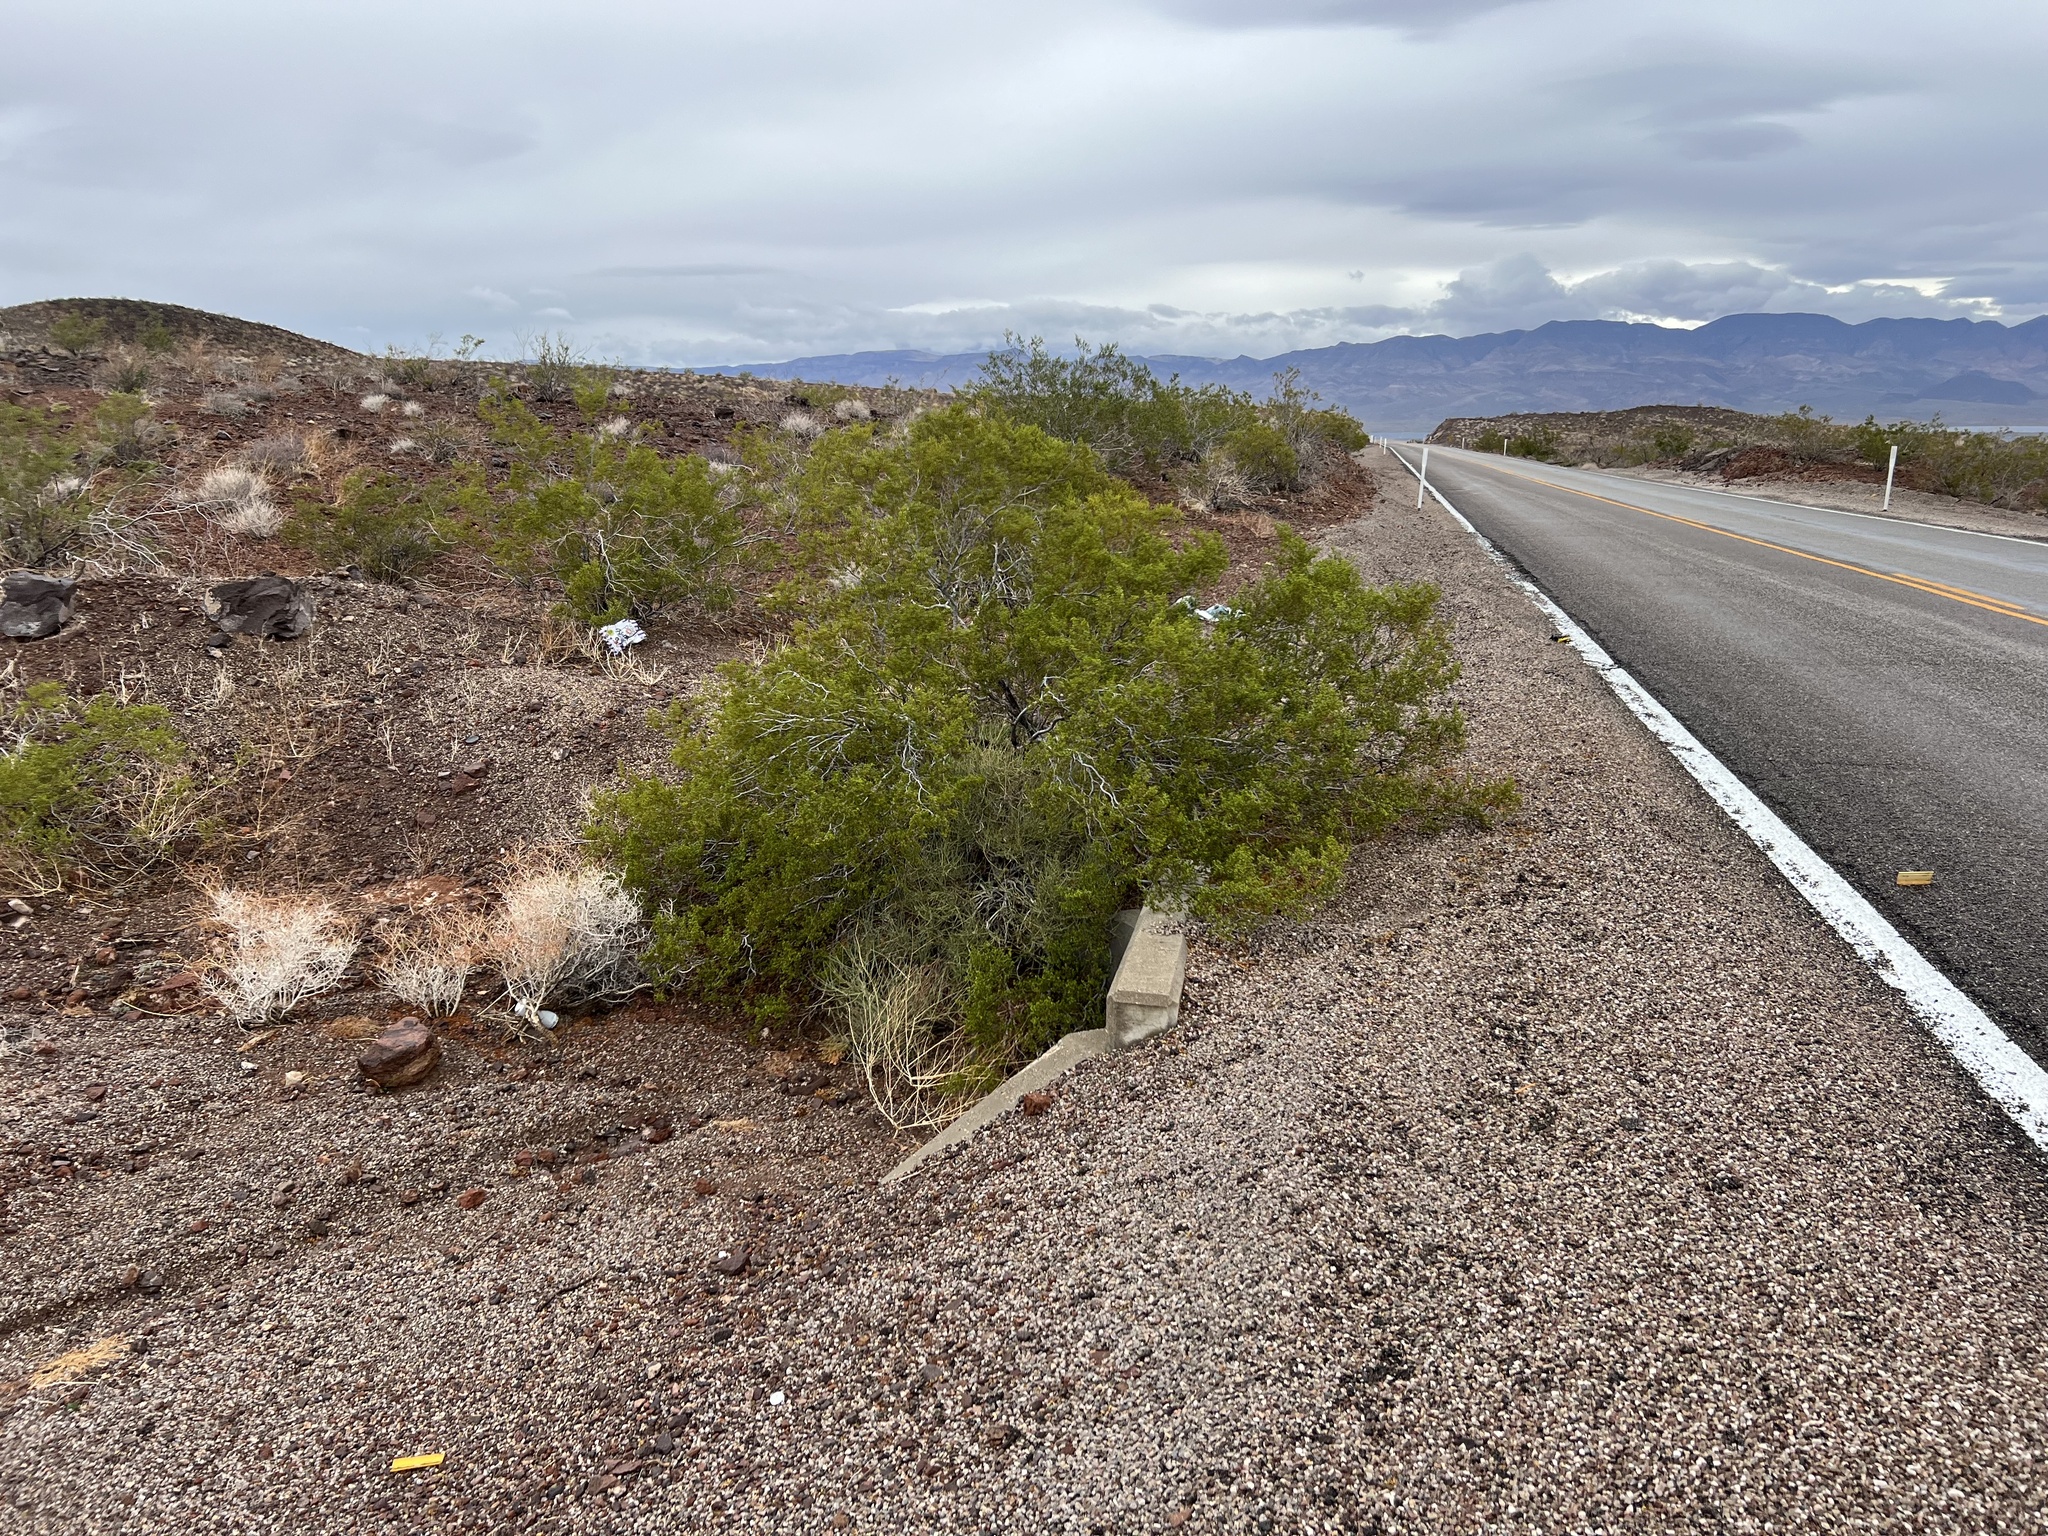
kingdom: Plantae
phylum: Tracheophyta
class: Magnoliopsida
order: Zygophyllales
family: Zygophyllaceae
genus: Larrea
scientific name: Larrea tridentata
